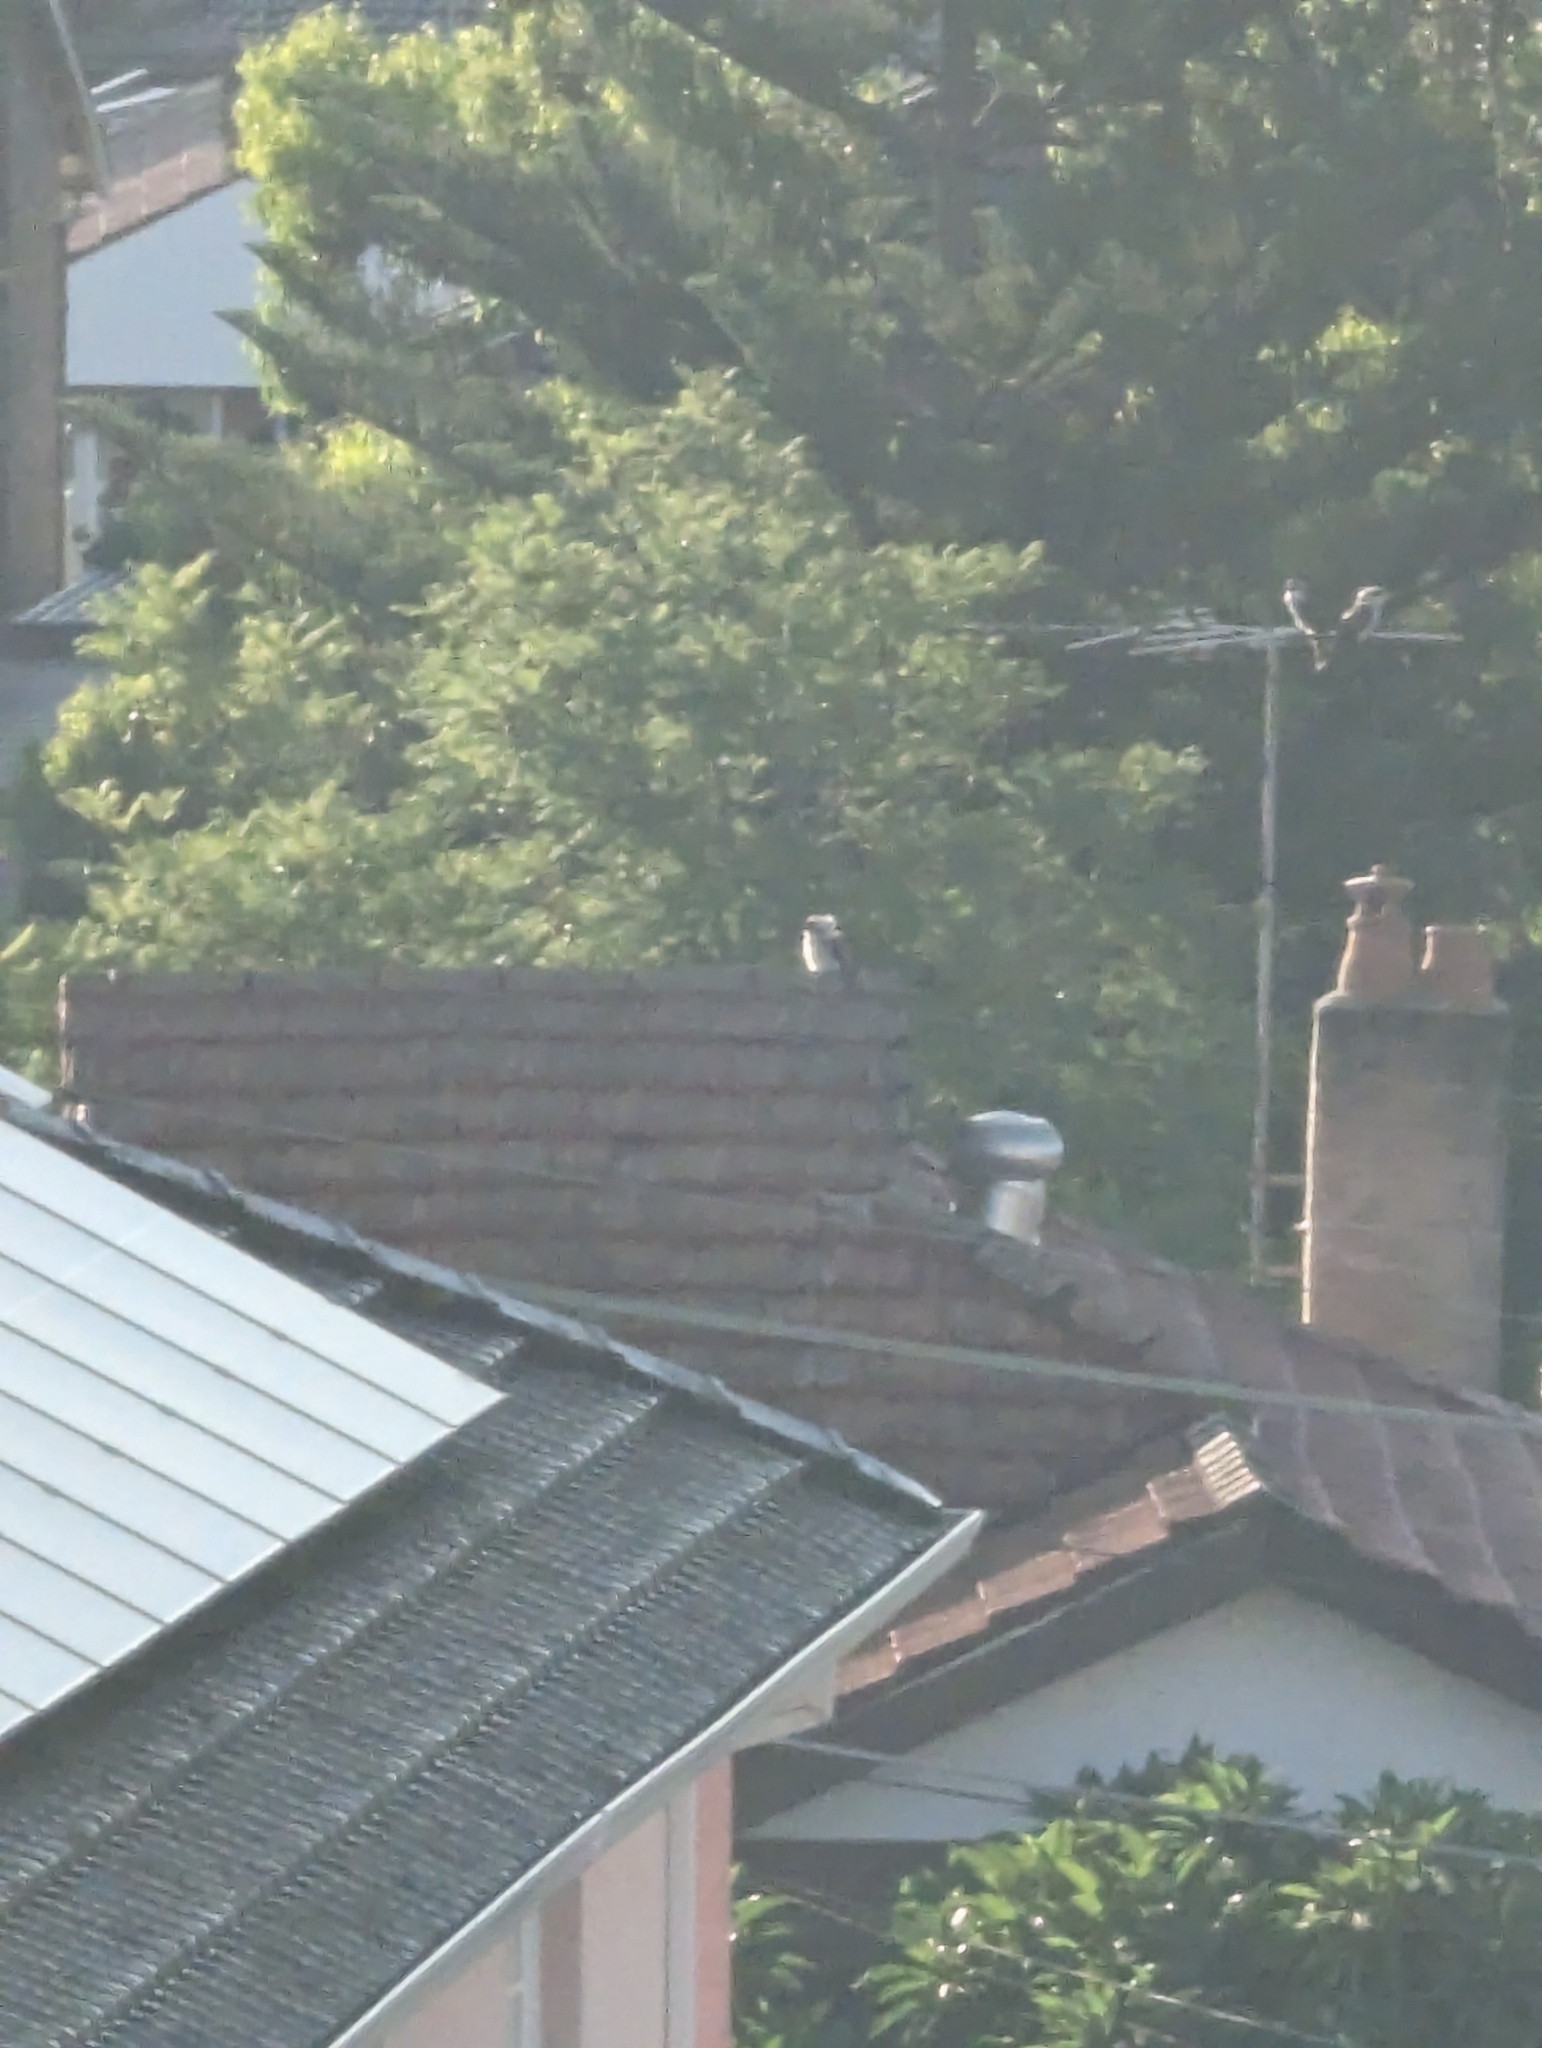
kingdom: Animalia
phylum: Chordata
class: Aves
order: Coraciiformes
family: Alcedinidae
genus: Dacelo
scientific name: Dacelo novaeguineae
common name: Laughing kookaburra
